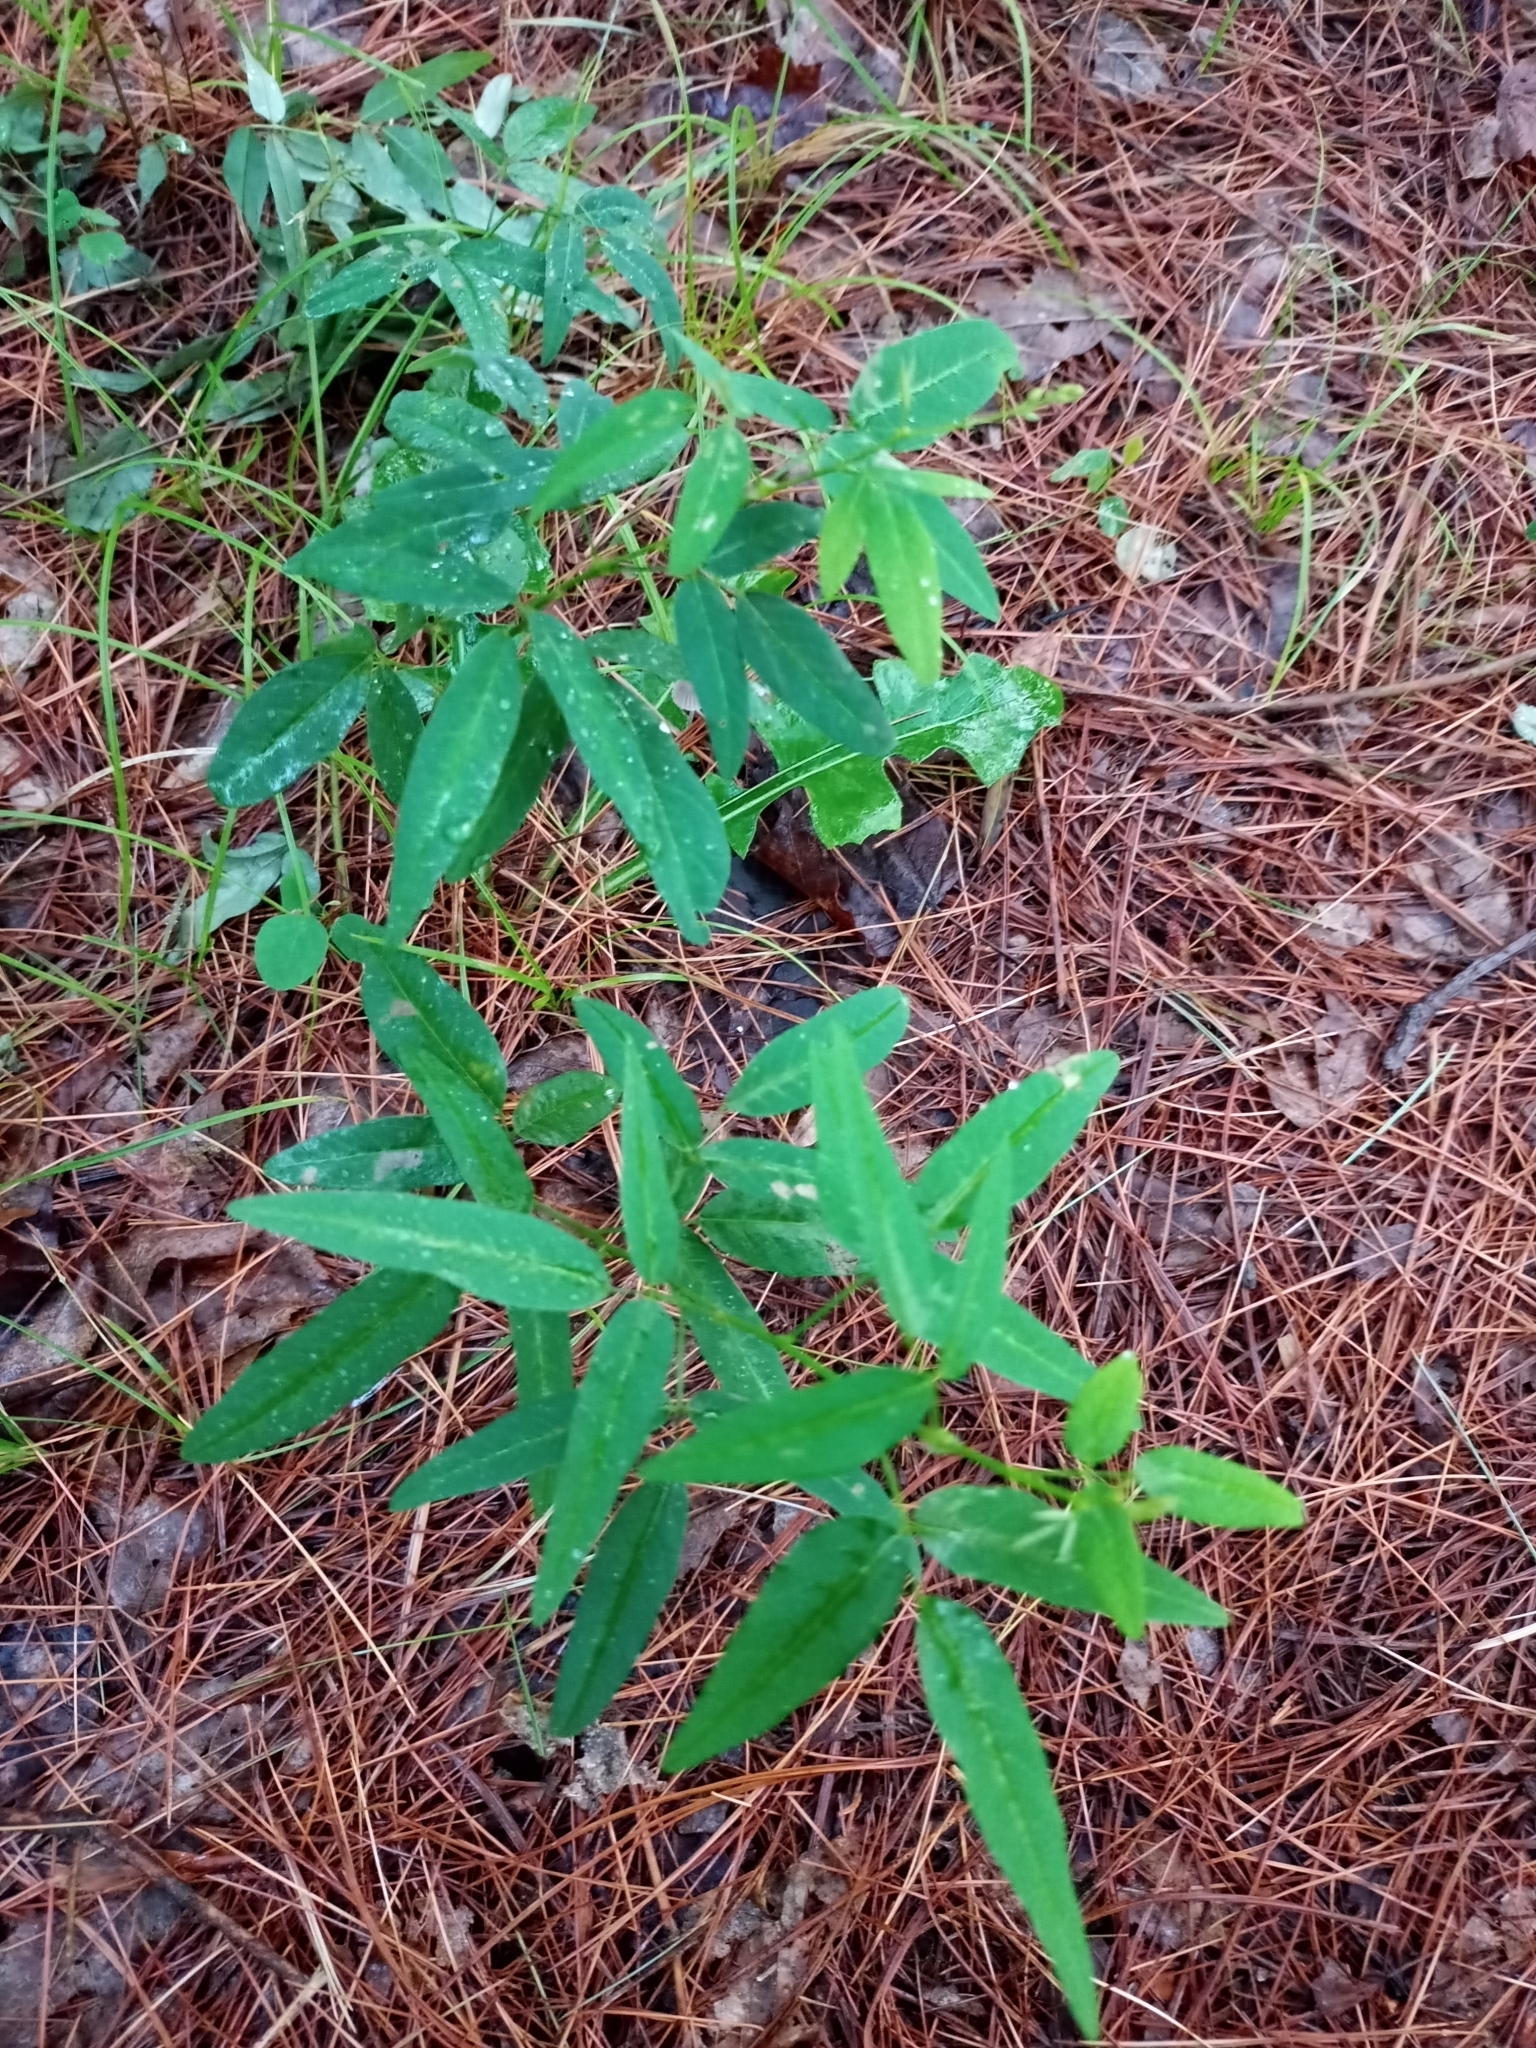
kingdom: Plantae
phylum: Tracheophyta
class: Magnoliopsida
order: Fabales
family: Fabaceae
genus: Desmodium
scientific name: Desmodium paniculatum
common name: Panicled tick-clover
